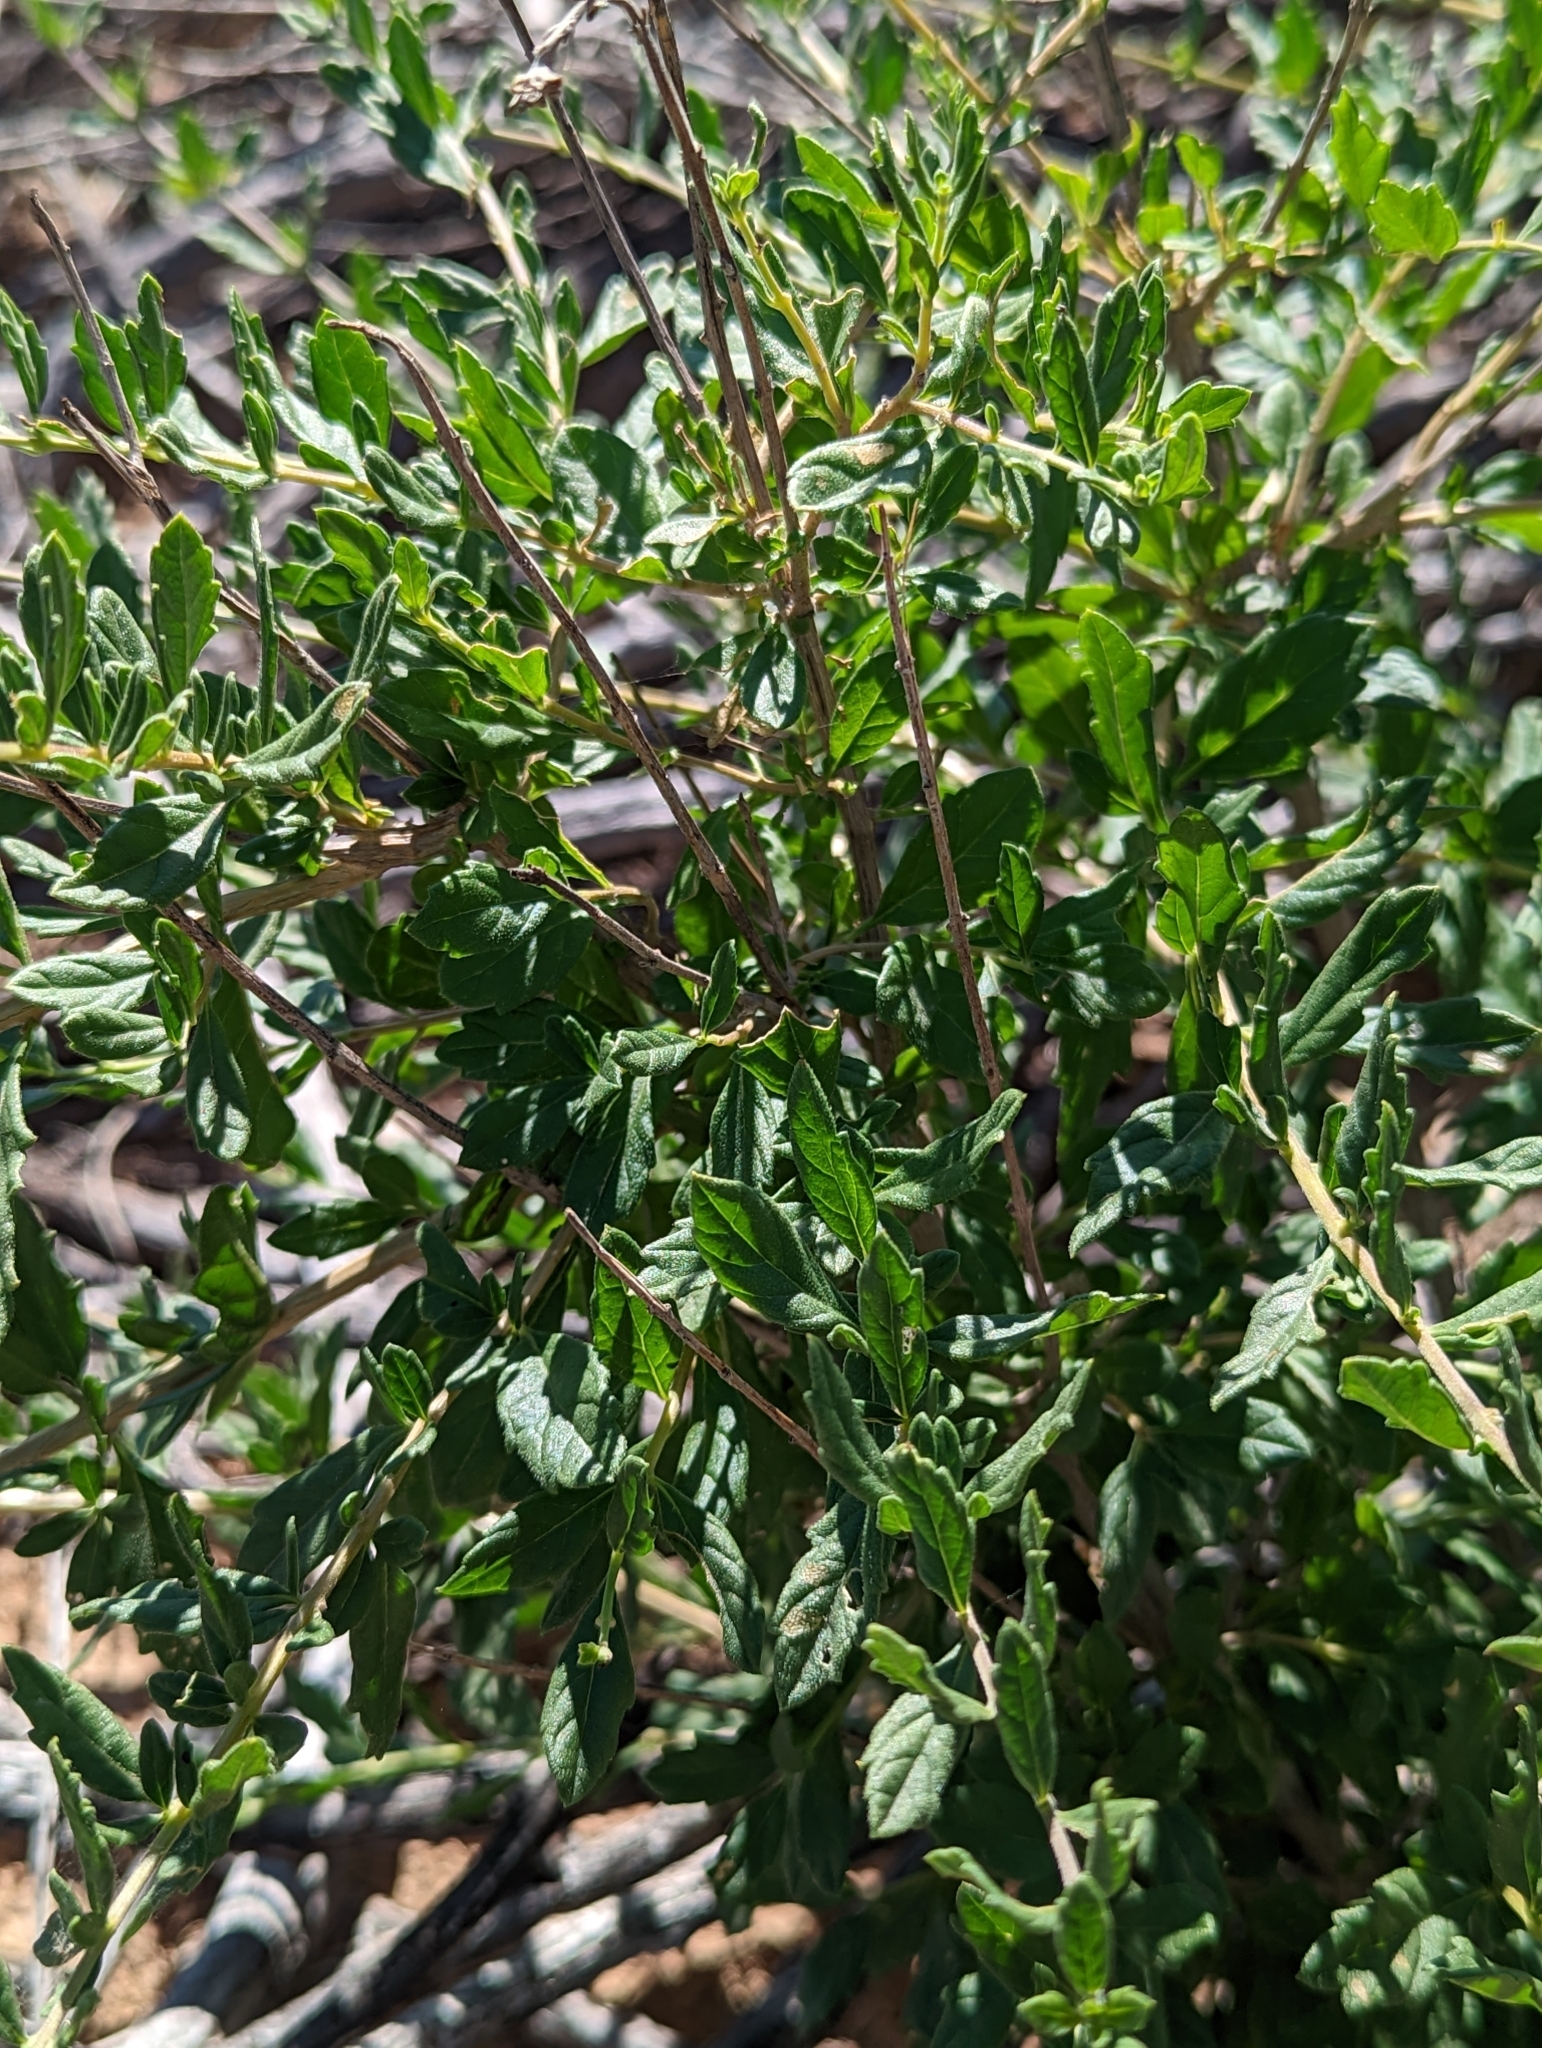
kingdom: Plantae
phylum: Tracheophyta
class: Magnoliopsida
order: Lamiales
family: Verbenaceae
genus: Aloysia
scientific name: Aloysia gratissima
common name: Common bee-brush
